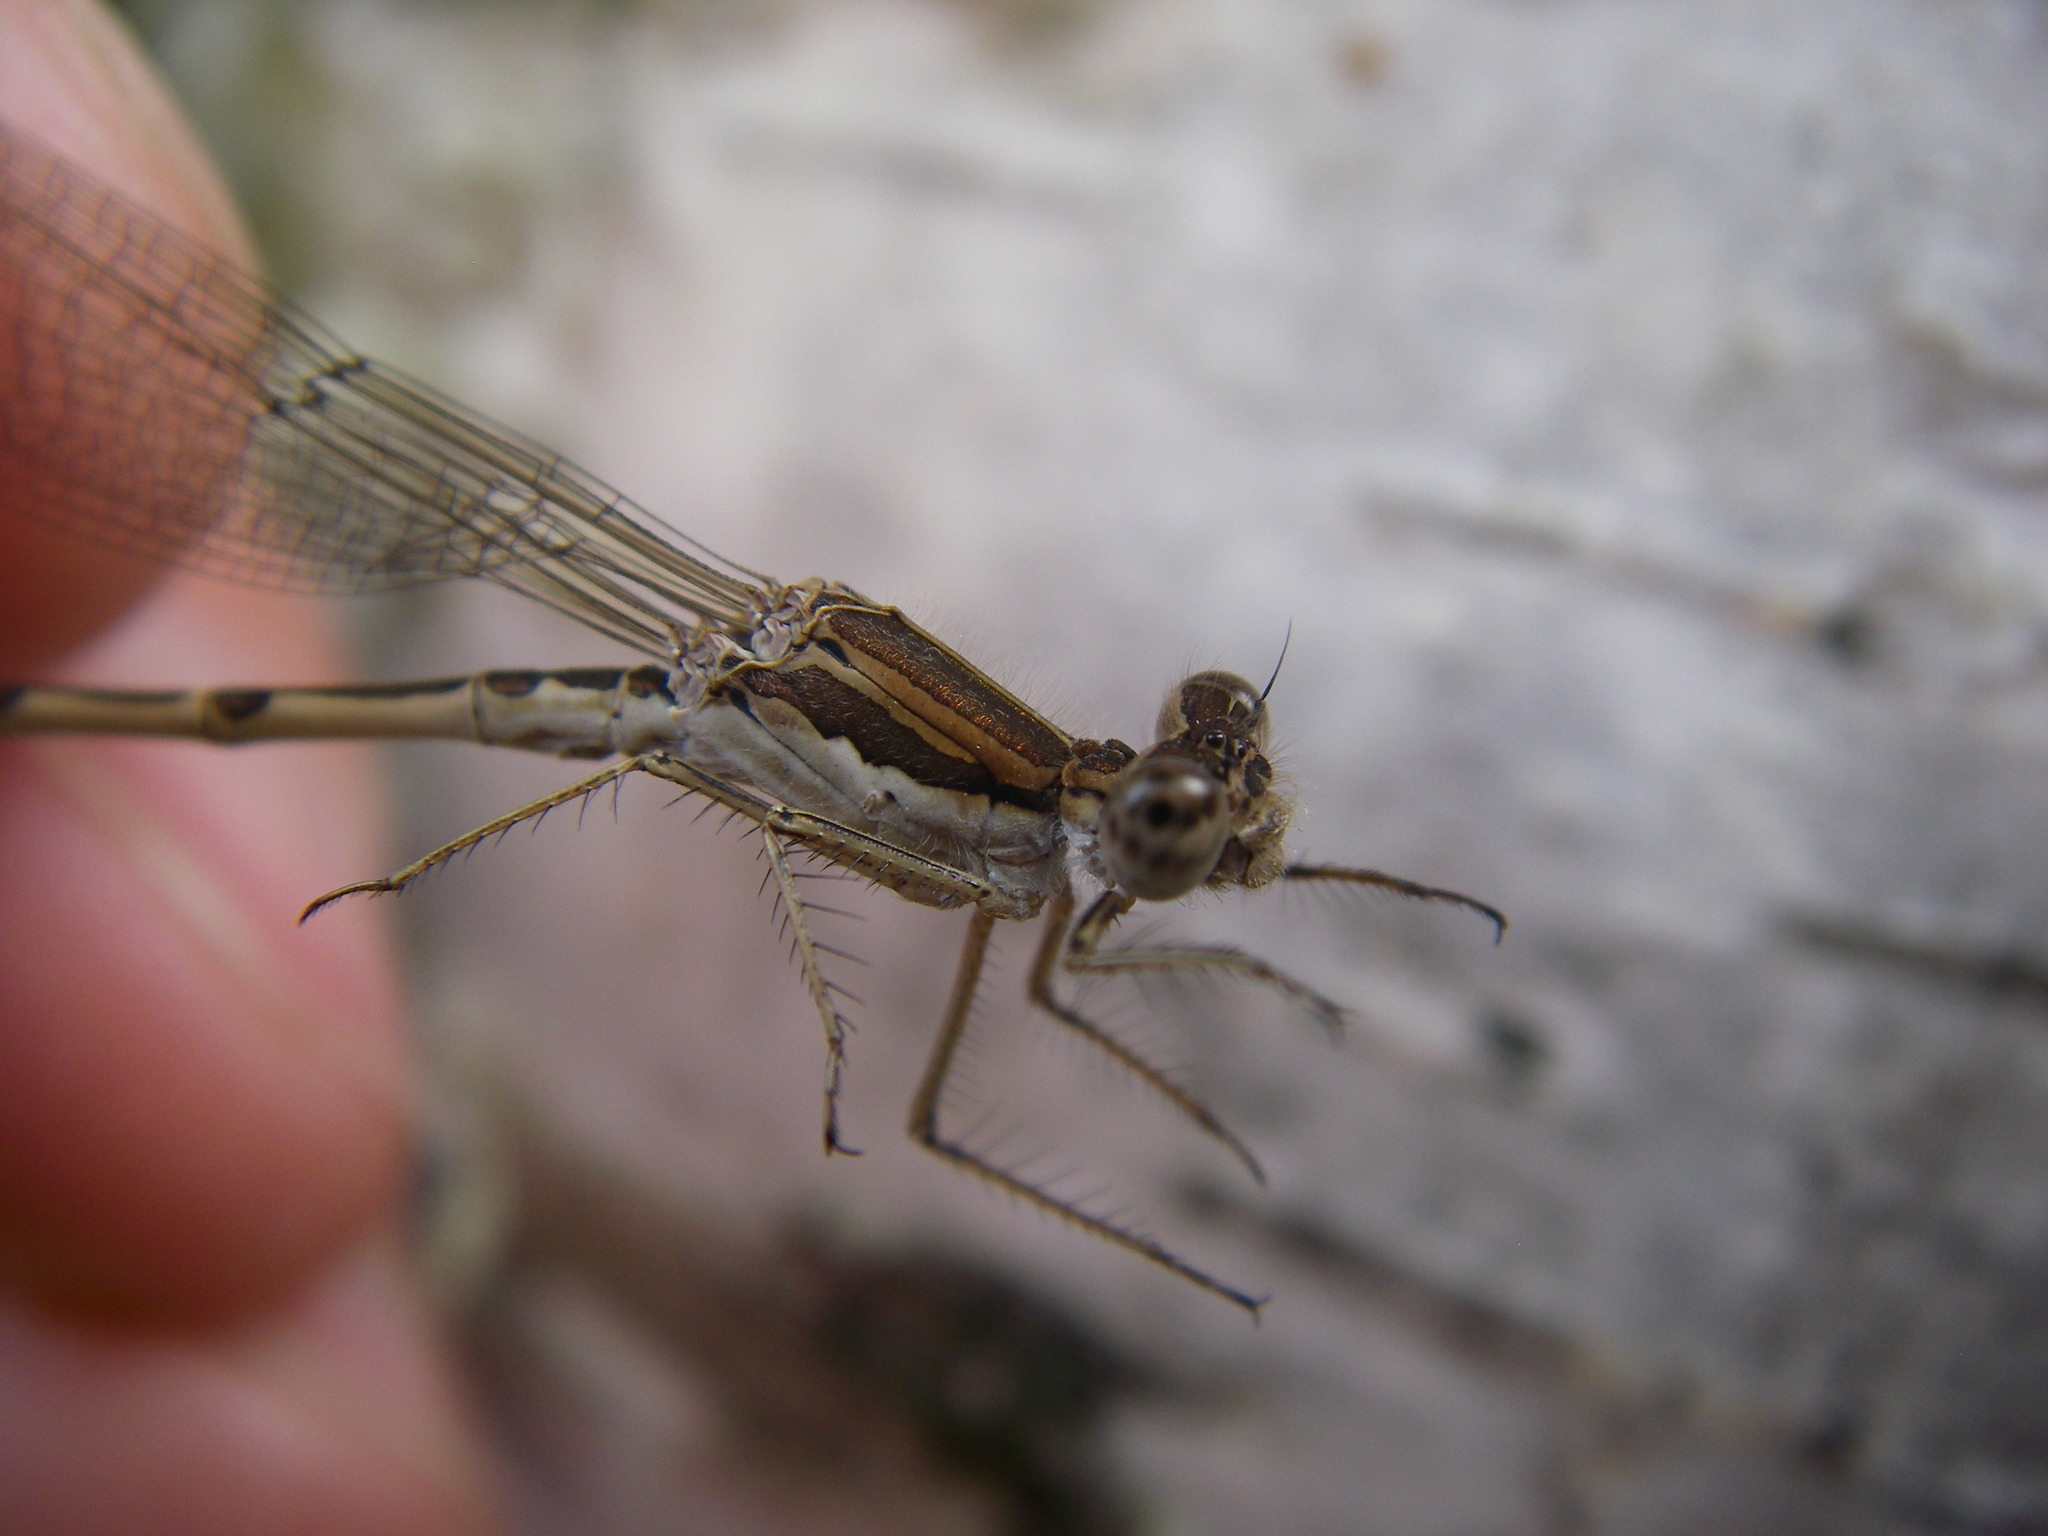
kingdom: Animalia
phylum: Arthropoda
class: Insecta
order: Odonata
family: Lestidae
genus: Sympecma
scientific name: Sympecma fusca
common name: Common winter damsel
